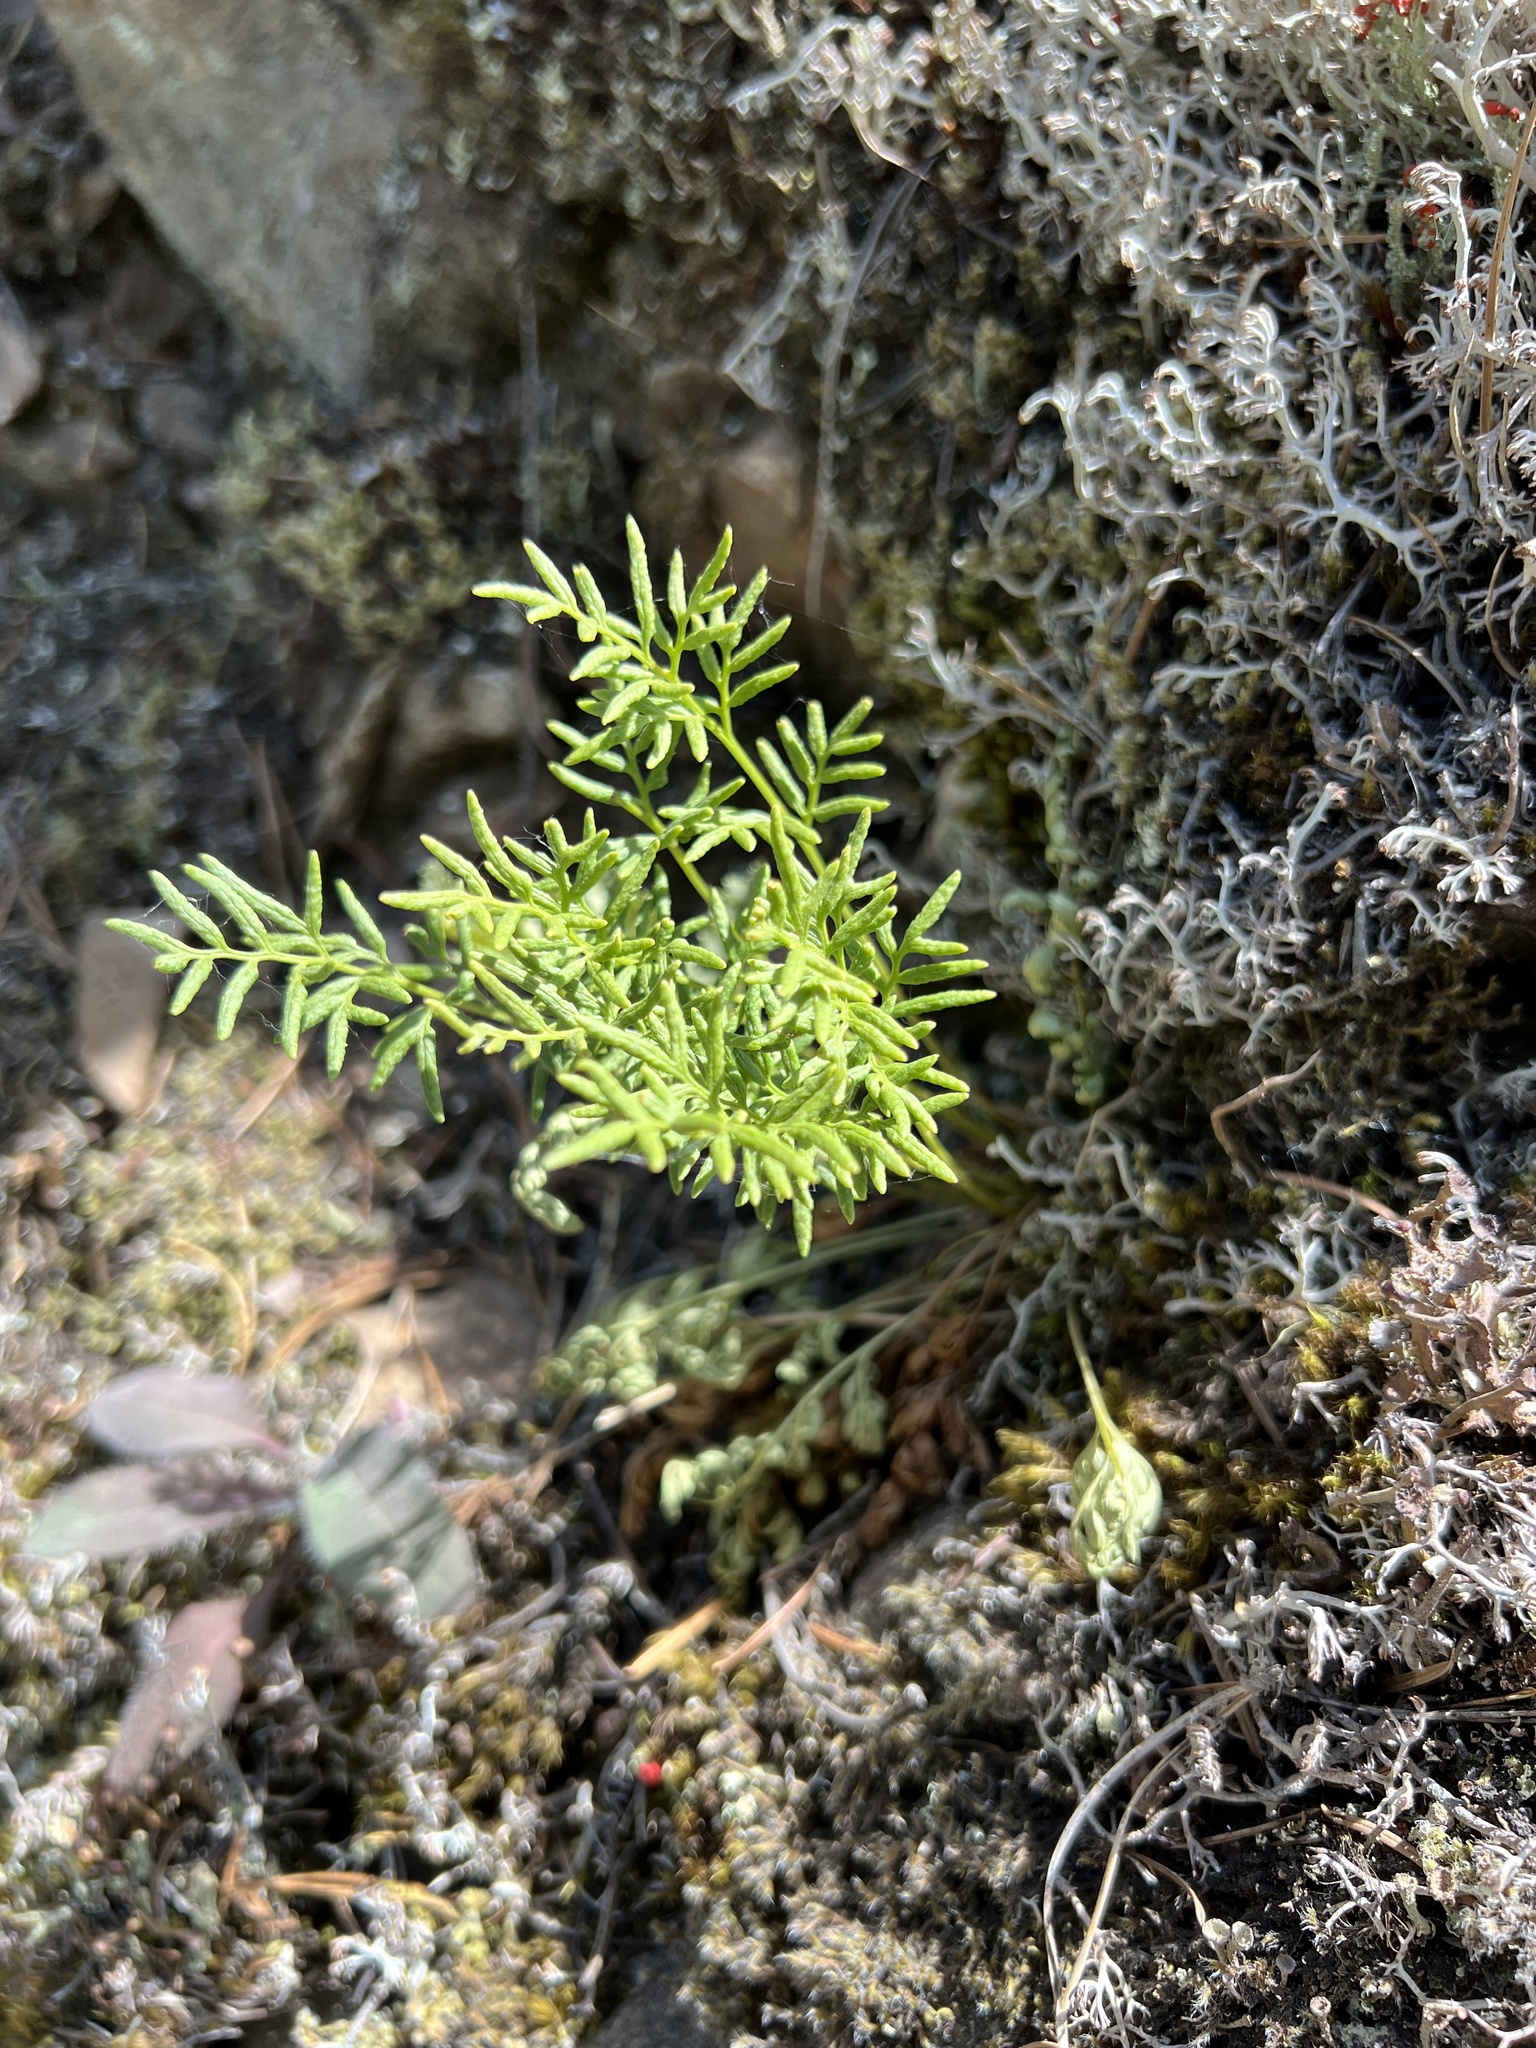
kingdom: Plantae
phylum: Tracheophyta
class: Polypodiopsida
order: Polypodiales
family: Pteridaceae
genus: Cryptogramma
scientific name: Cryptogramma acrostichoides
